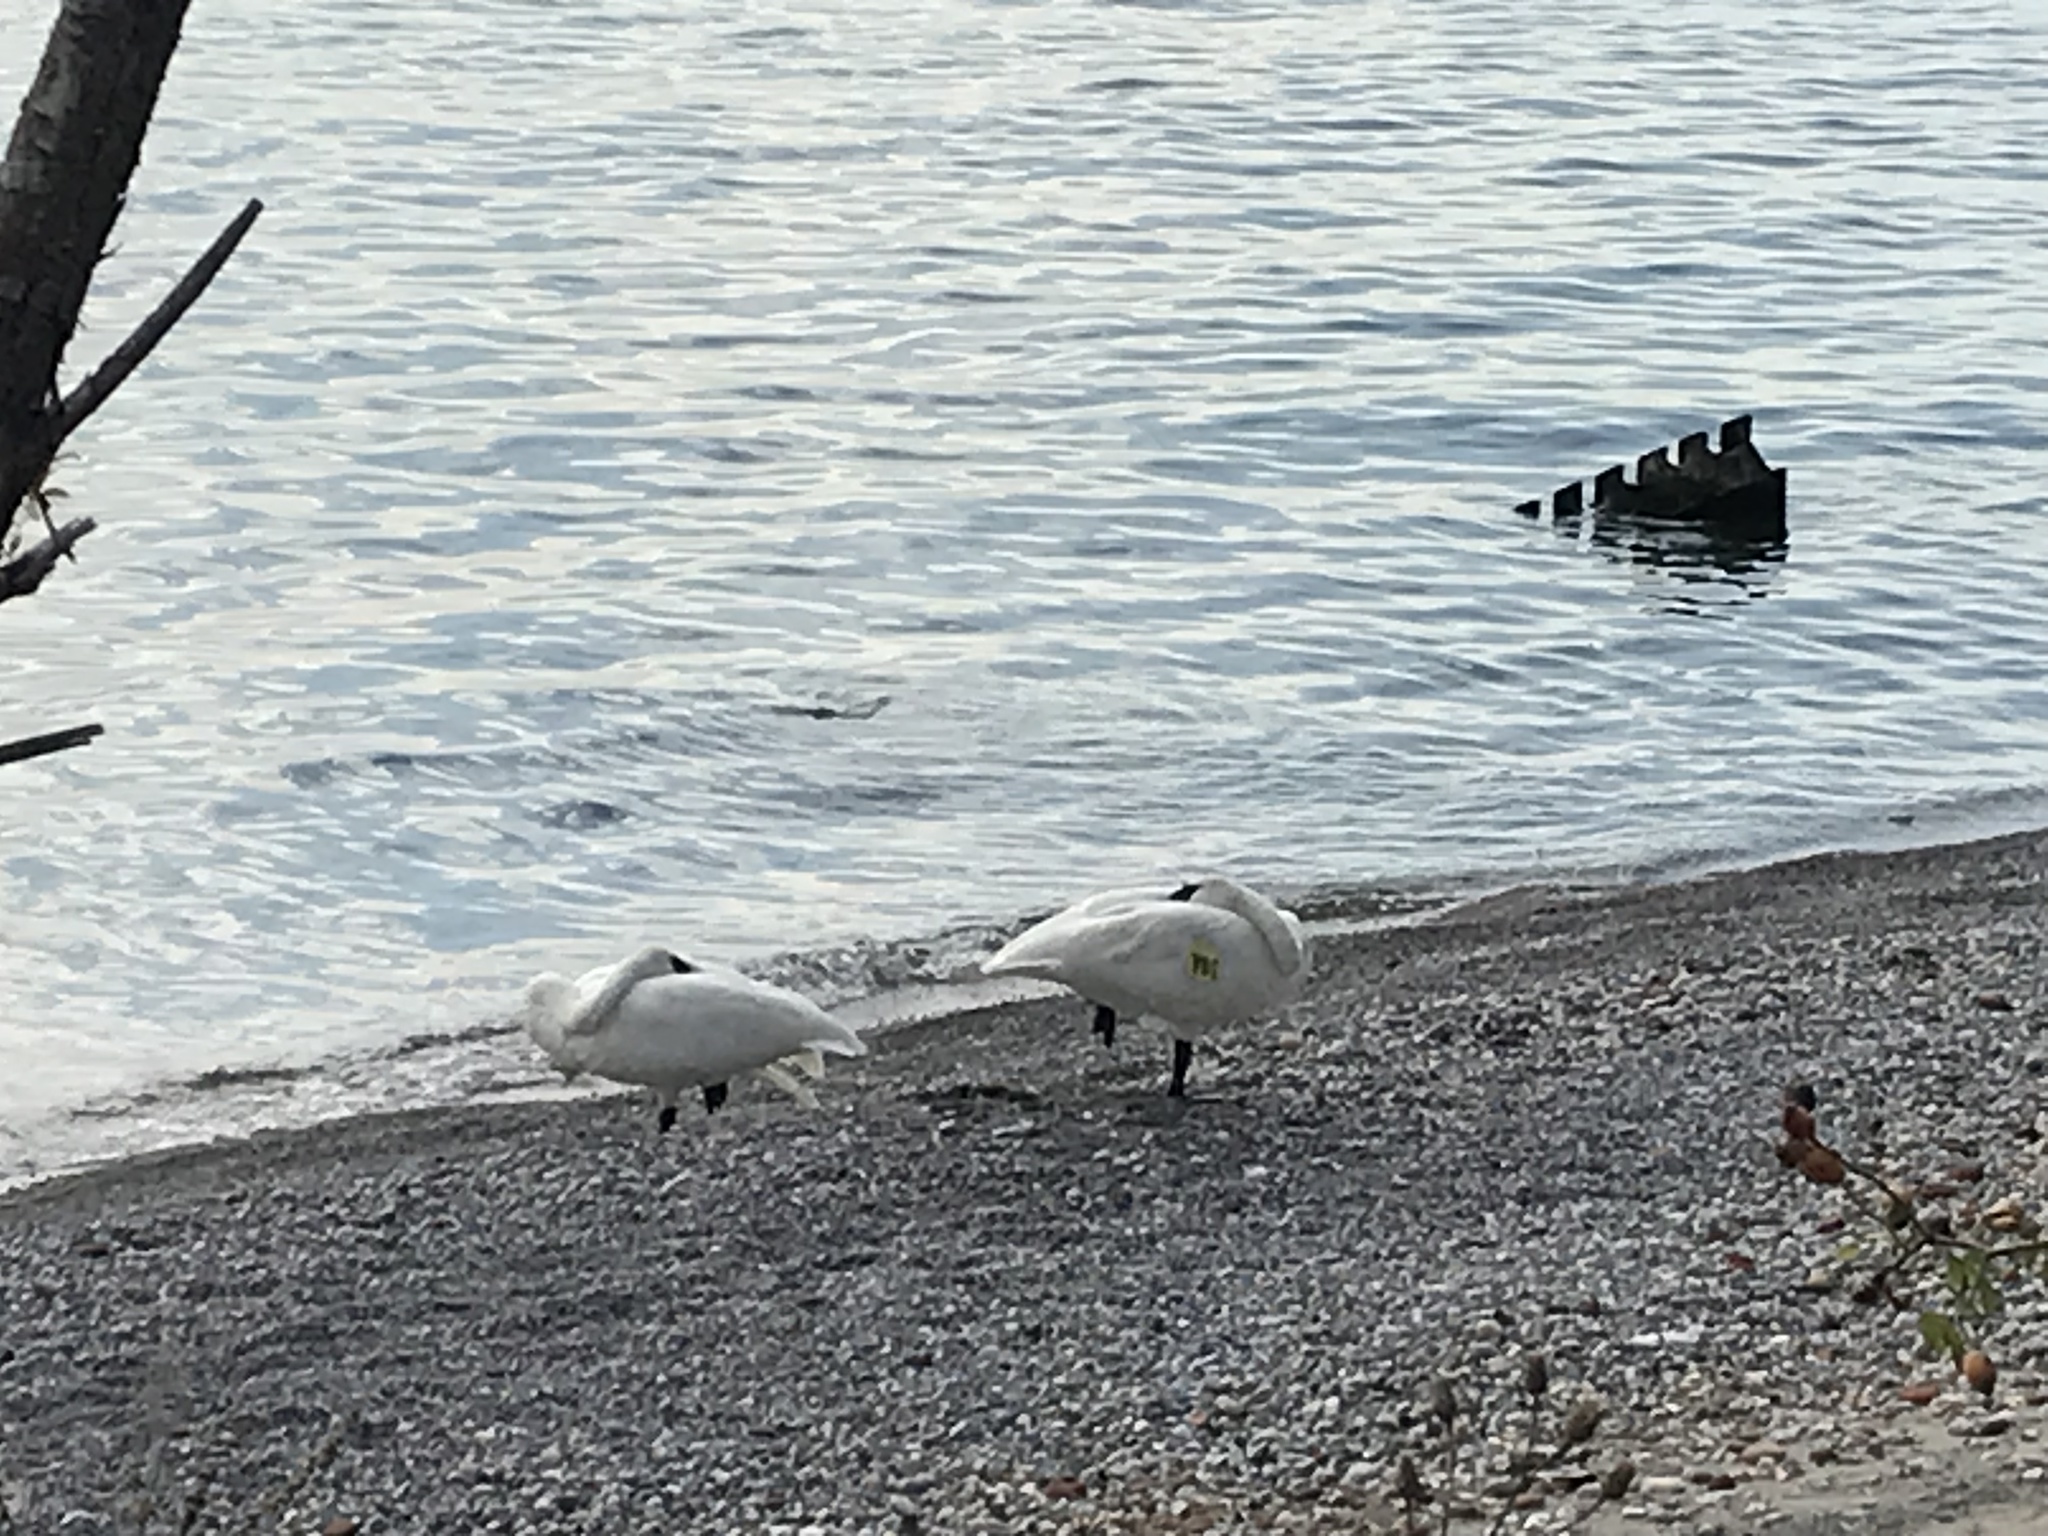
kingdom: Animalia
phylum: Chordata
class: Aves
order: Anseriformes
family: Anatidae
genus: Cygnus
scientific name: Cygnus buccinator
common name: Trumpeter swan
